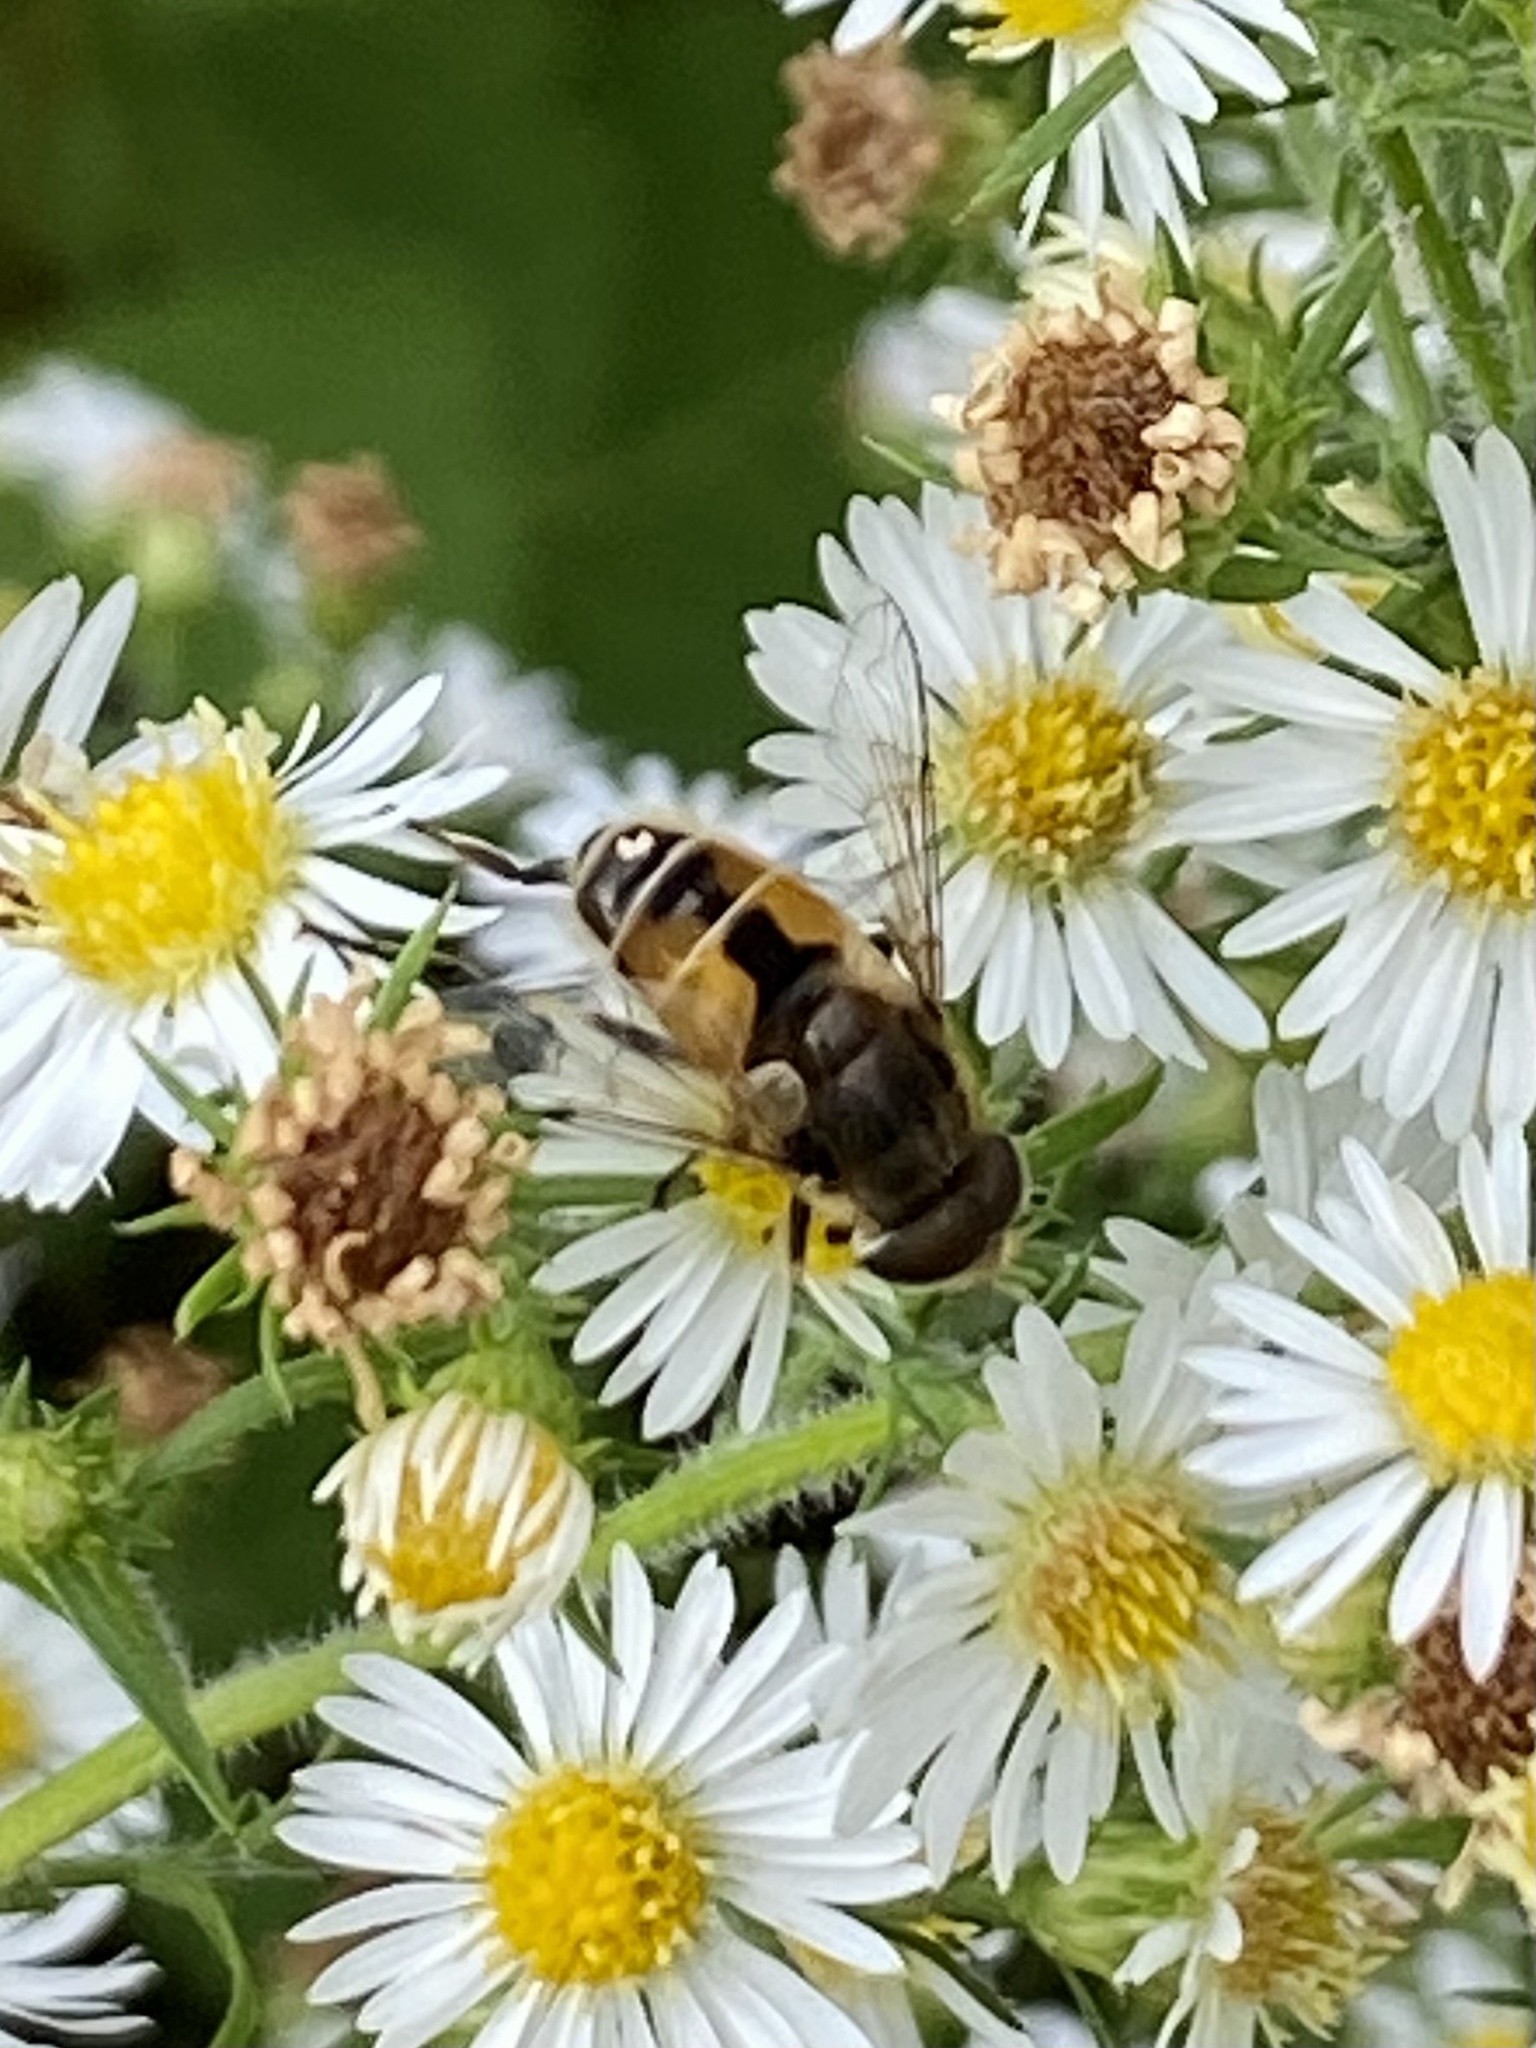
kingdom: Animalia
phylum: Arthropoda
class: Insecta
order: Diptera
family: Syrphidae
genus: Eristalis
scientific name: Eristalis arbustorum
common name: Hover fly
